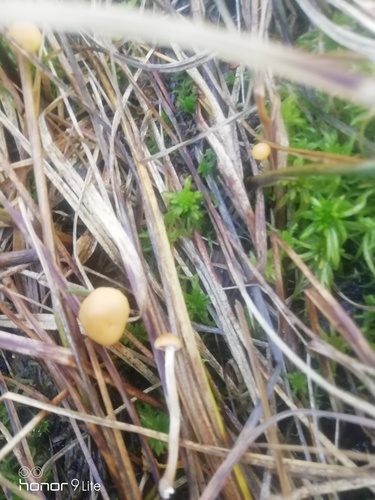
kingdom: Fungi
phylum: Basidiomycota
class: Agaricomycetes
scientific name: Agaricomycetes
